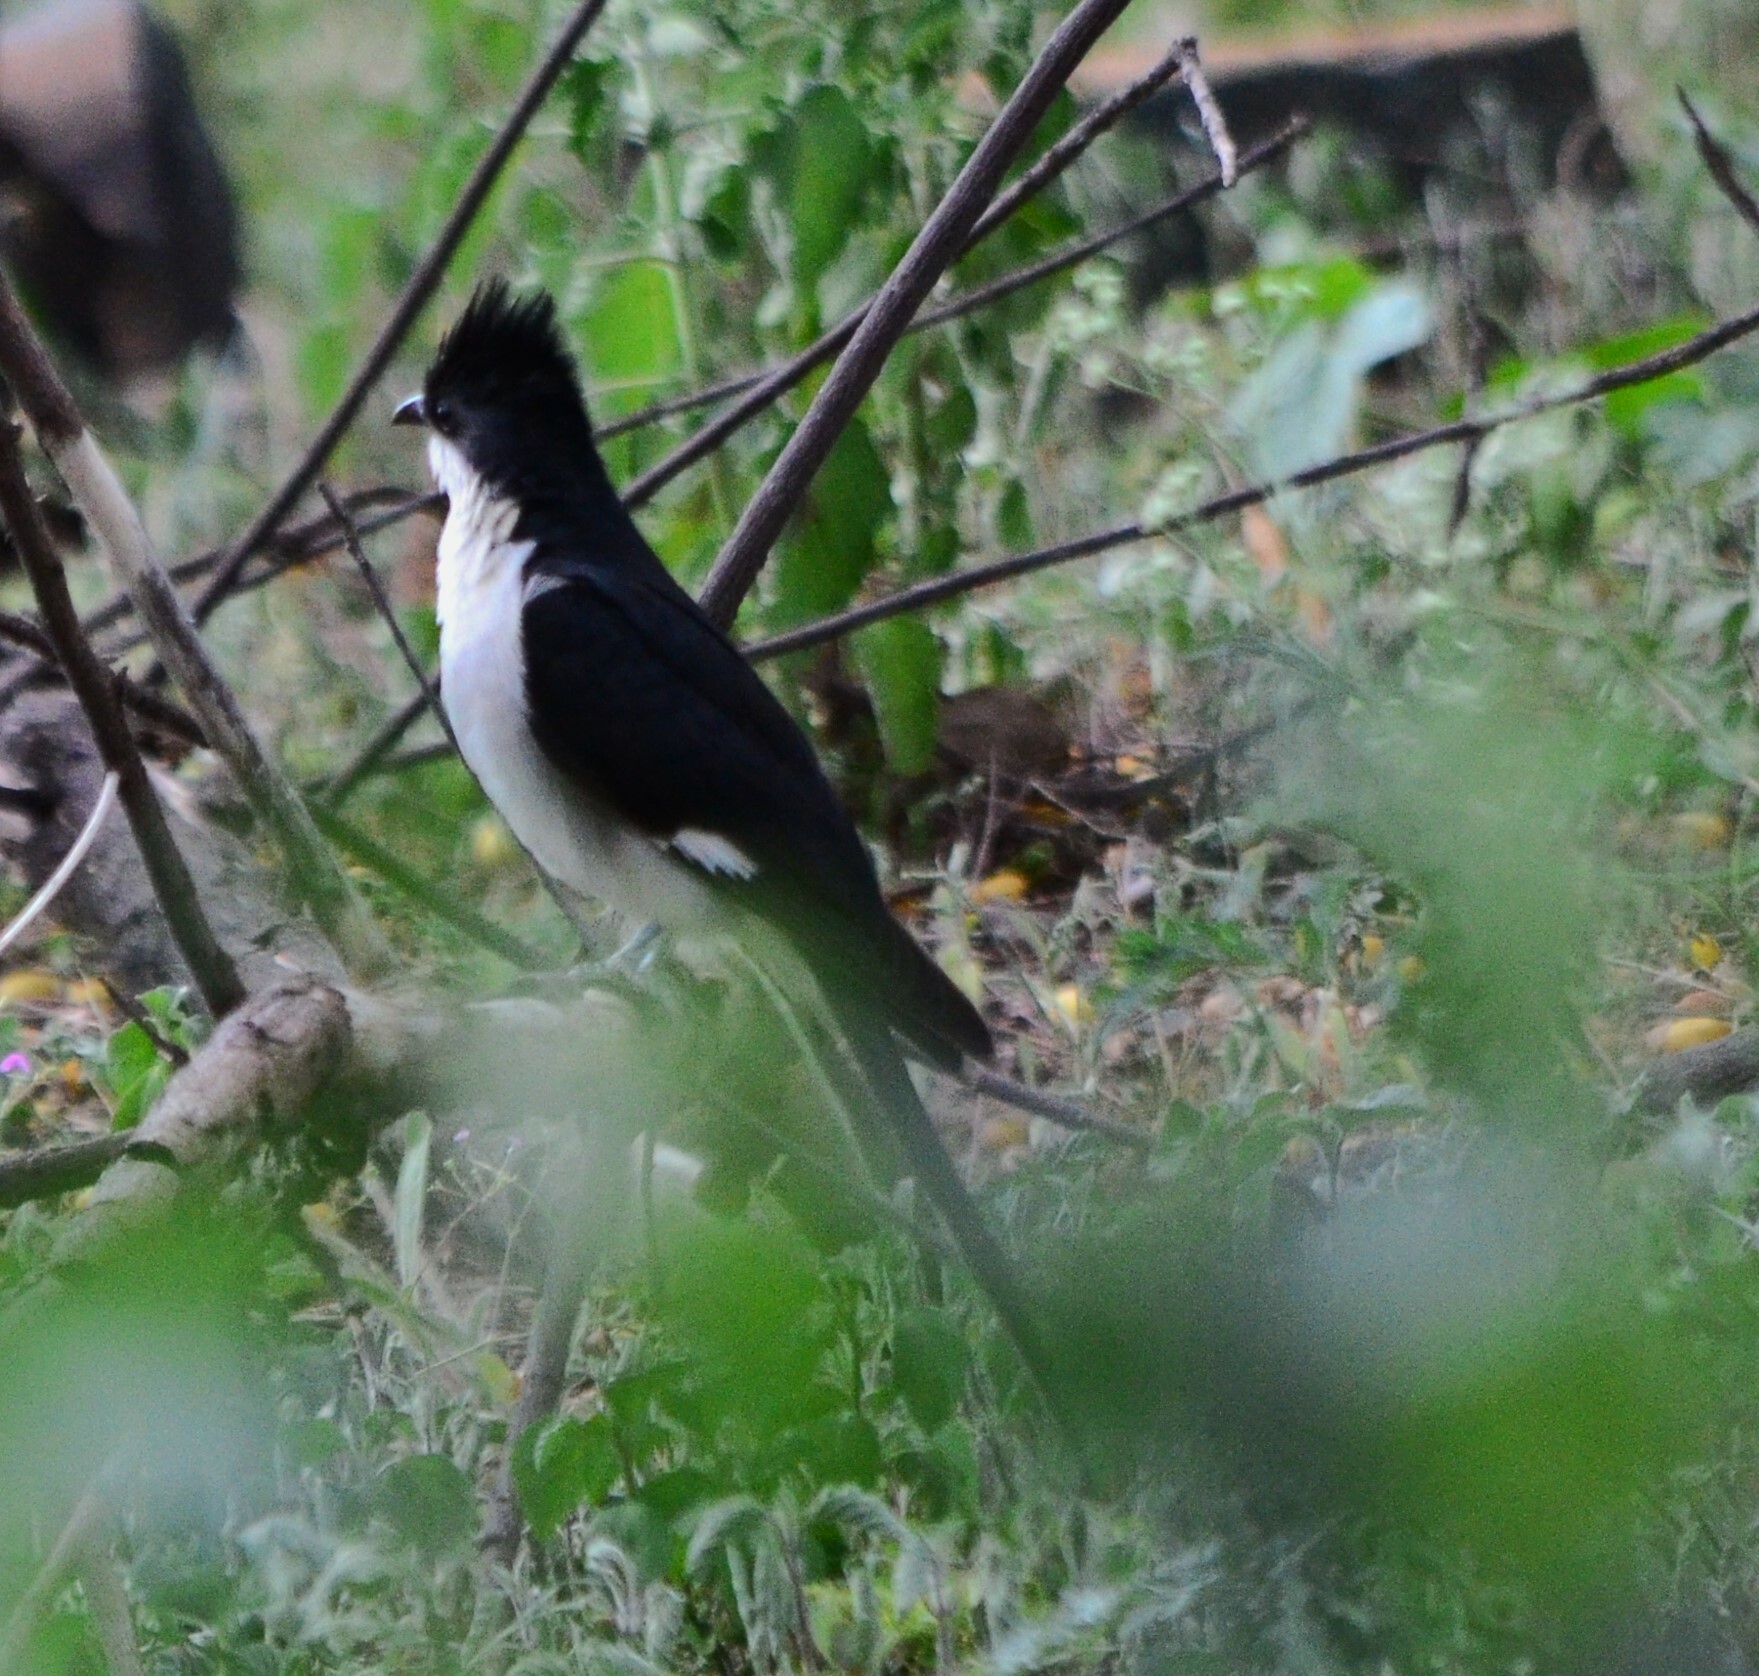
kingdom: Animalia
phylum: Chordata
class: Aves
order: Cuculiformes
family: Cuculidae
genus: Clamator
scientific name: Clamator jacobinus
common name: Jacobin cuckoo
